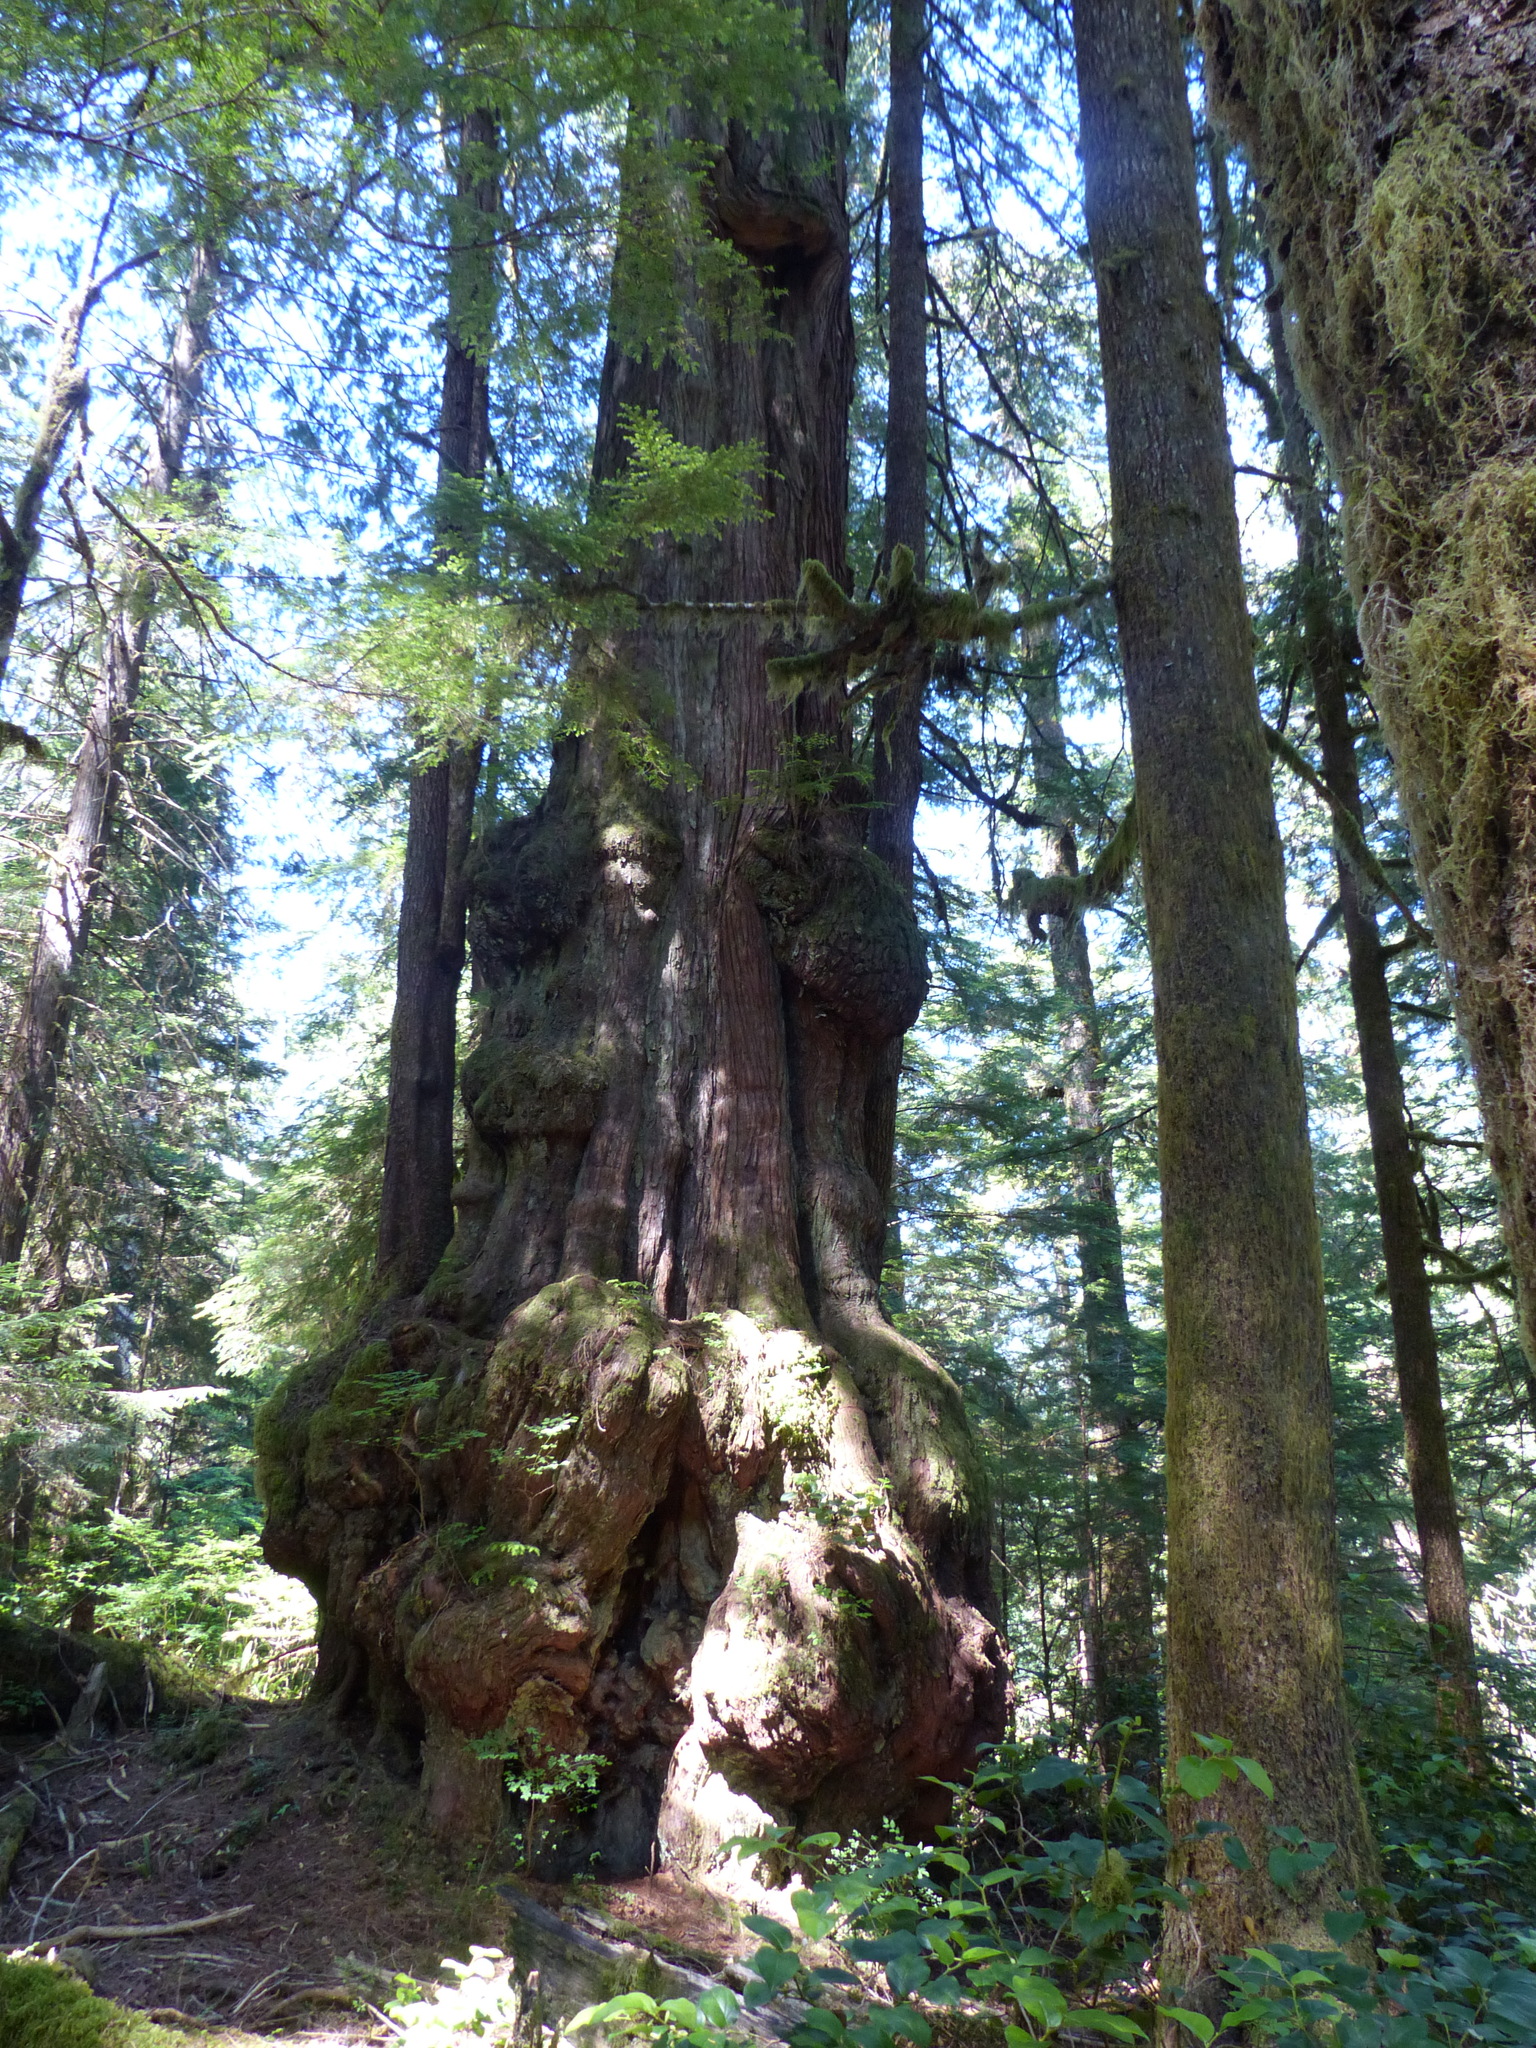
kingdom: Plantae
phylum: Tracheophyta
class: Pinopsida
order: Pinales
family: Cupressaceae
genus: Thuja
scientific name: Thuja plicata
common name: Western red-cedar
